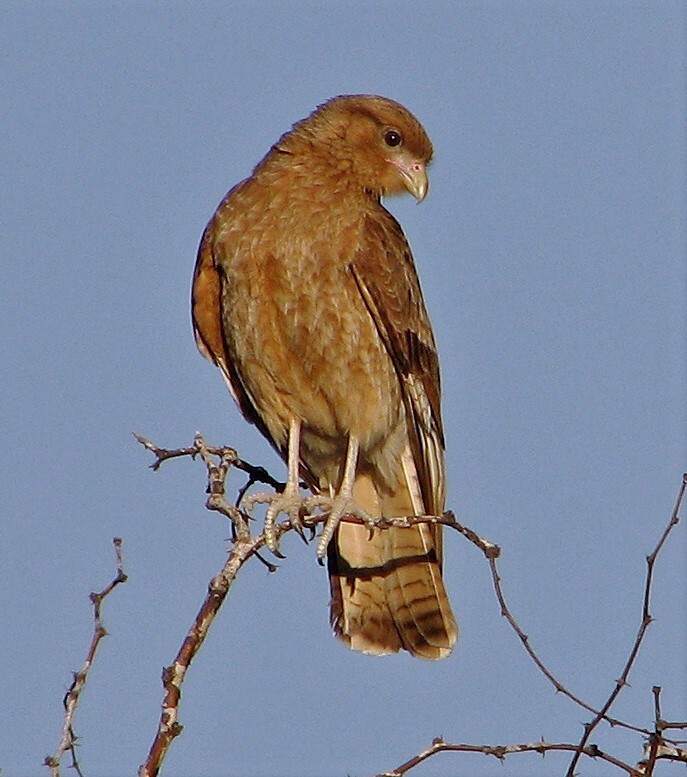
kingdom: Animalia
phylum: Chordata
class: Aves
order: Falconiformes
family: Falconidae
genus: Daptrius
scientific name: Daptrius
